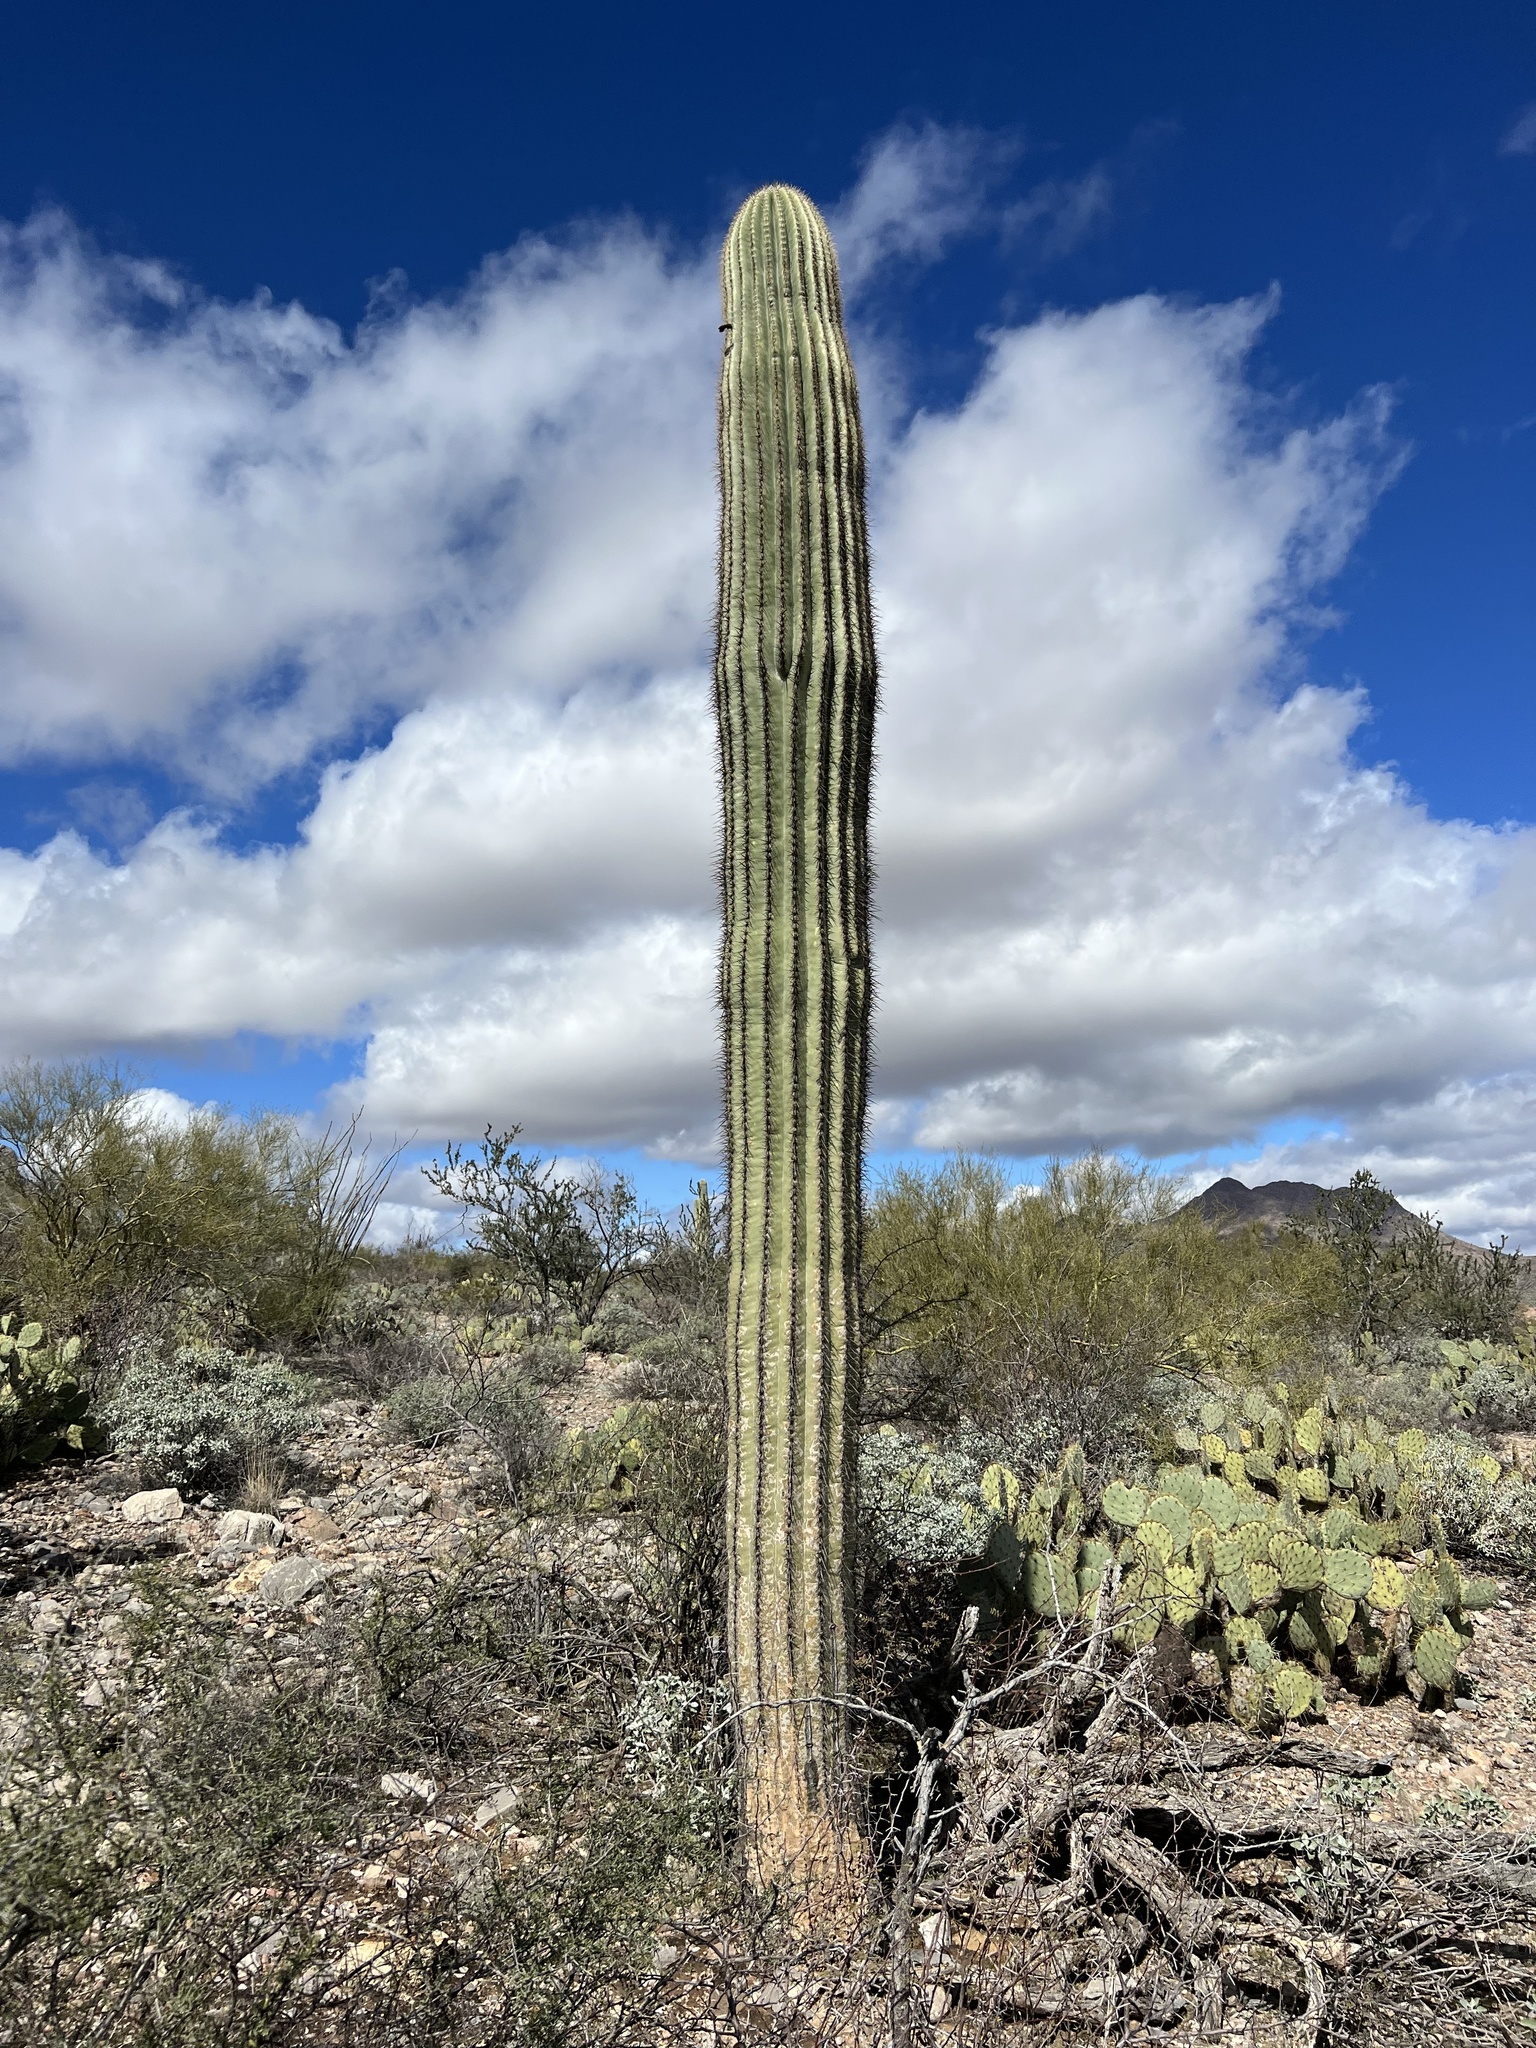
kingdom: Plantae
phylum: Tracheophyta
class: Magnoliopsida
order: Caryophyllales
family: Cactaceae
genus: Carnegiea
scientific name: Carnegiea gigantea
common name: Saguaro
